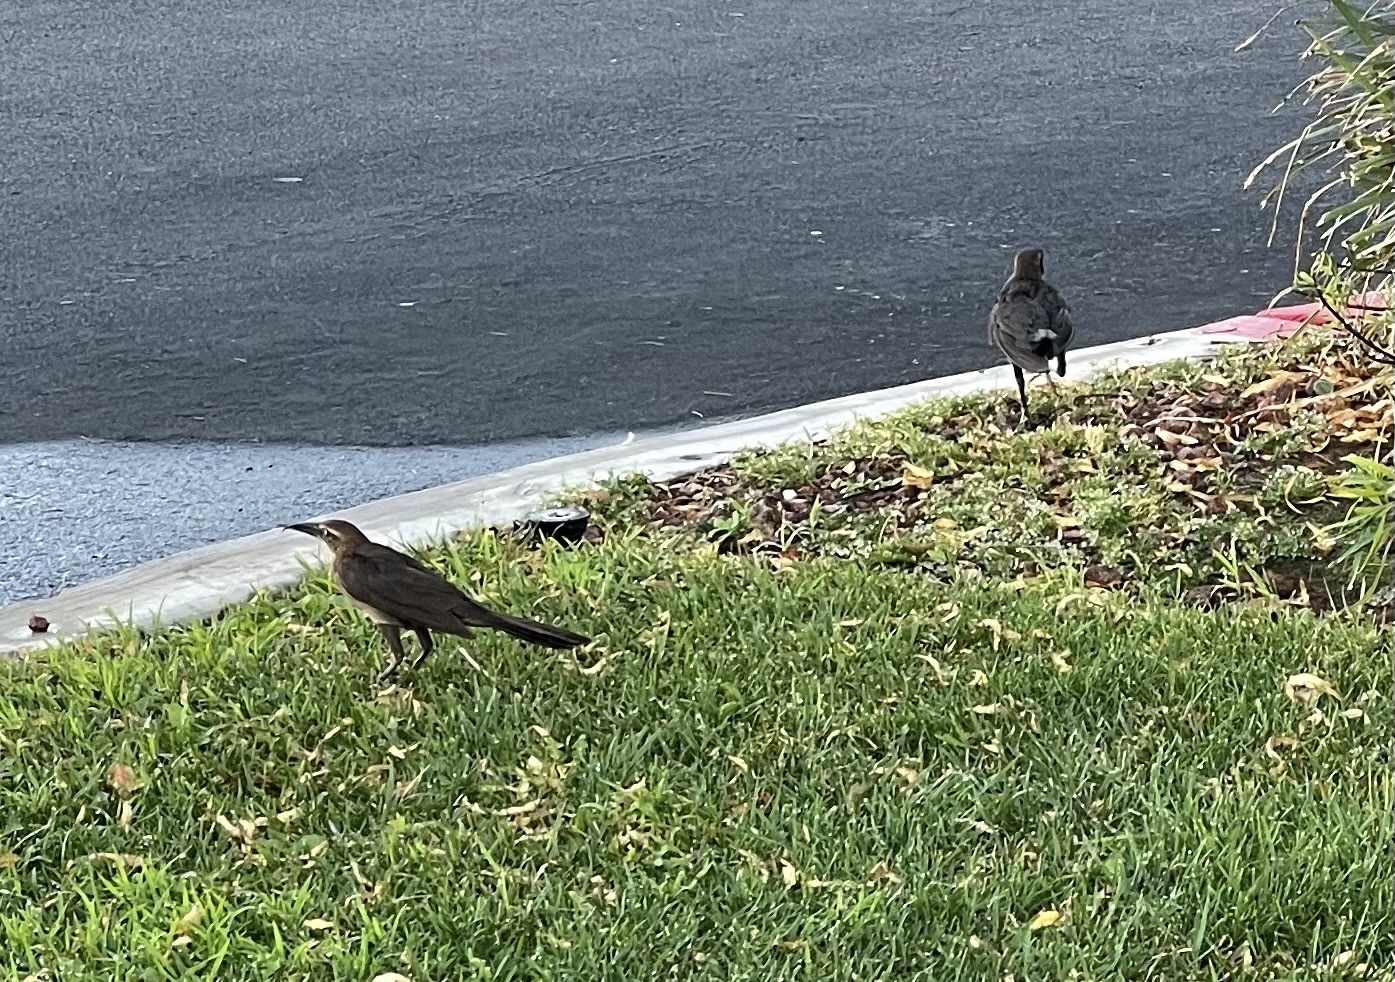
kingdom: Animalia
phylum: Chordata
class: Aves
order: Passeriformes
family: Icteridae
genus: Quiscalus
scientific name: Quiscalus mexicanus
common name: Great-tailed grackle
